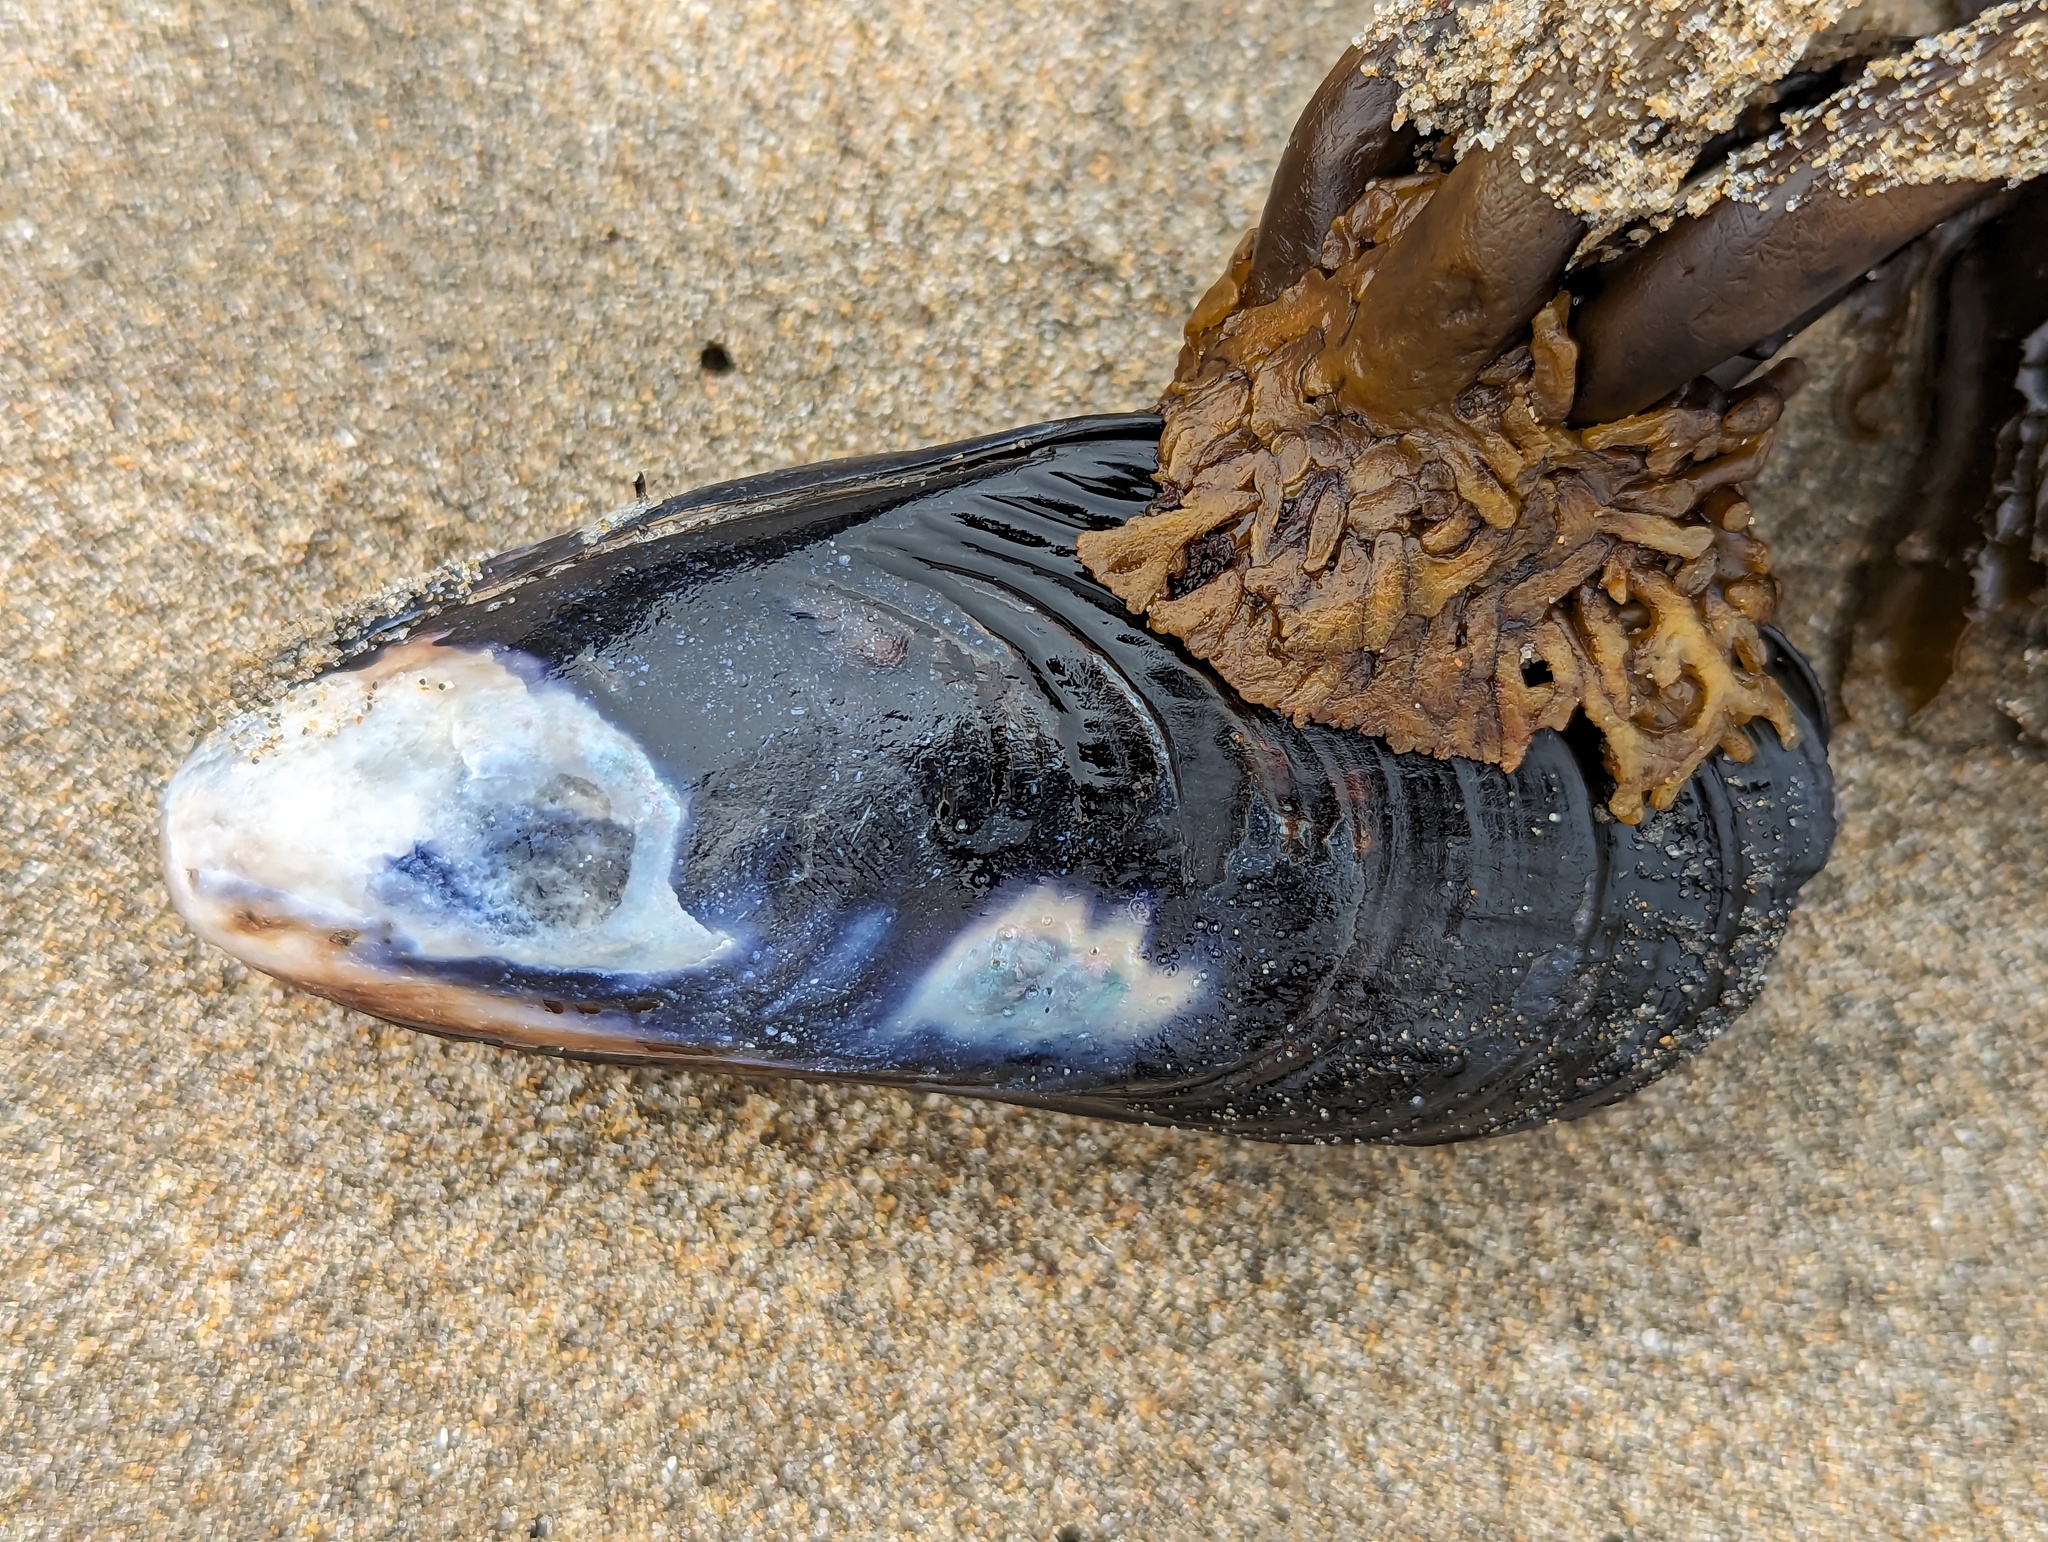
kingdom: Animalia
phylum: Mollusca
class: Bivalvia
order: Mytilida
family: Mytilidae
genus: Mytilus
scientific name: Mytilus californianus
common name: California mussel
